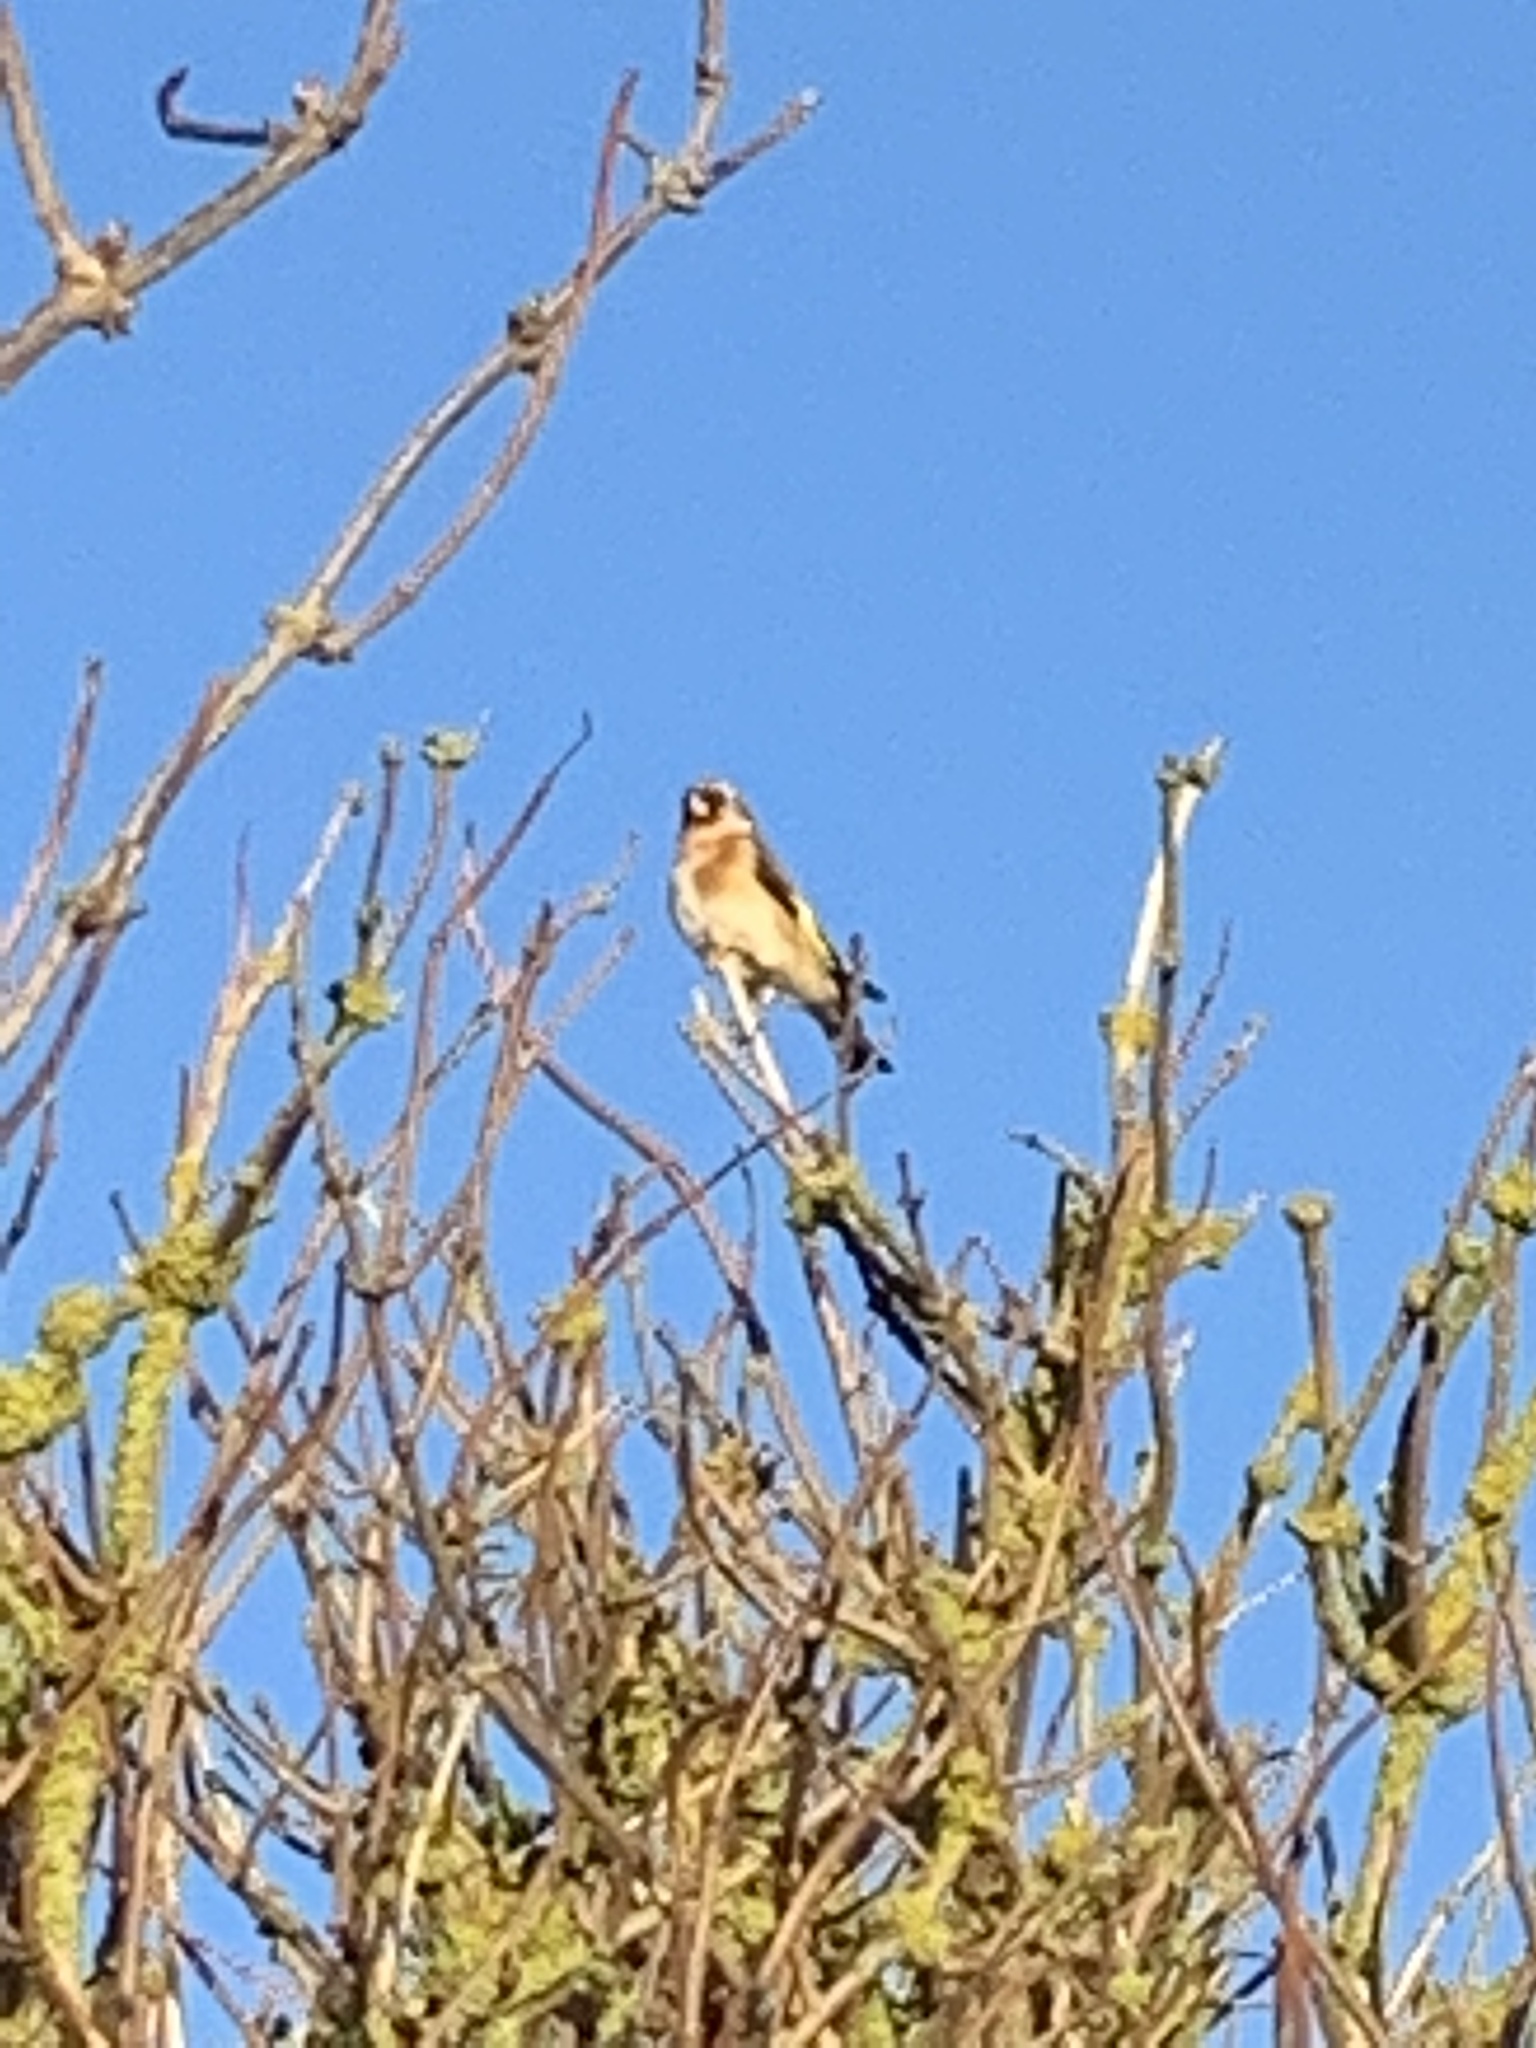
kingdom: Animalia
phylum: Chordata
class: Aves
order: Passeriformes
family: Fringillidae
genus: Carduelis
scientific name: Carduelis carduelis
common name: European goldfinch
